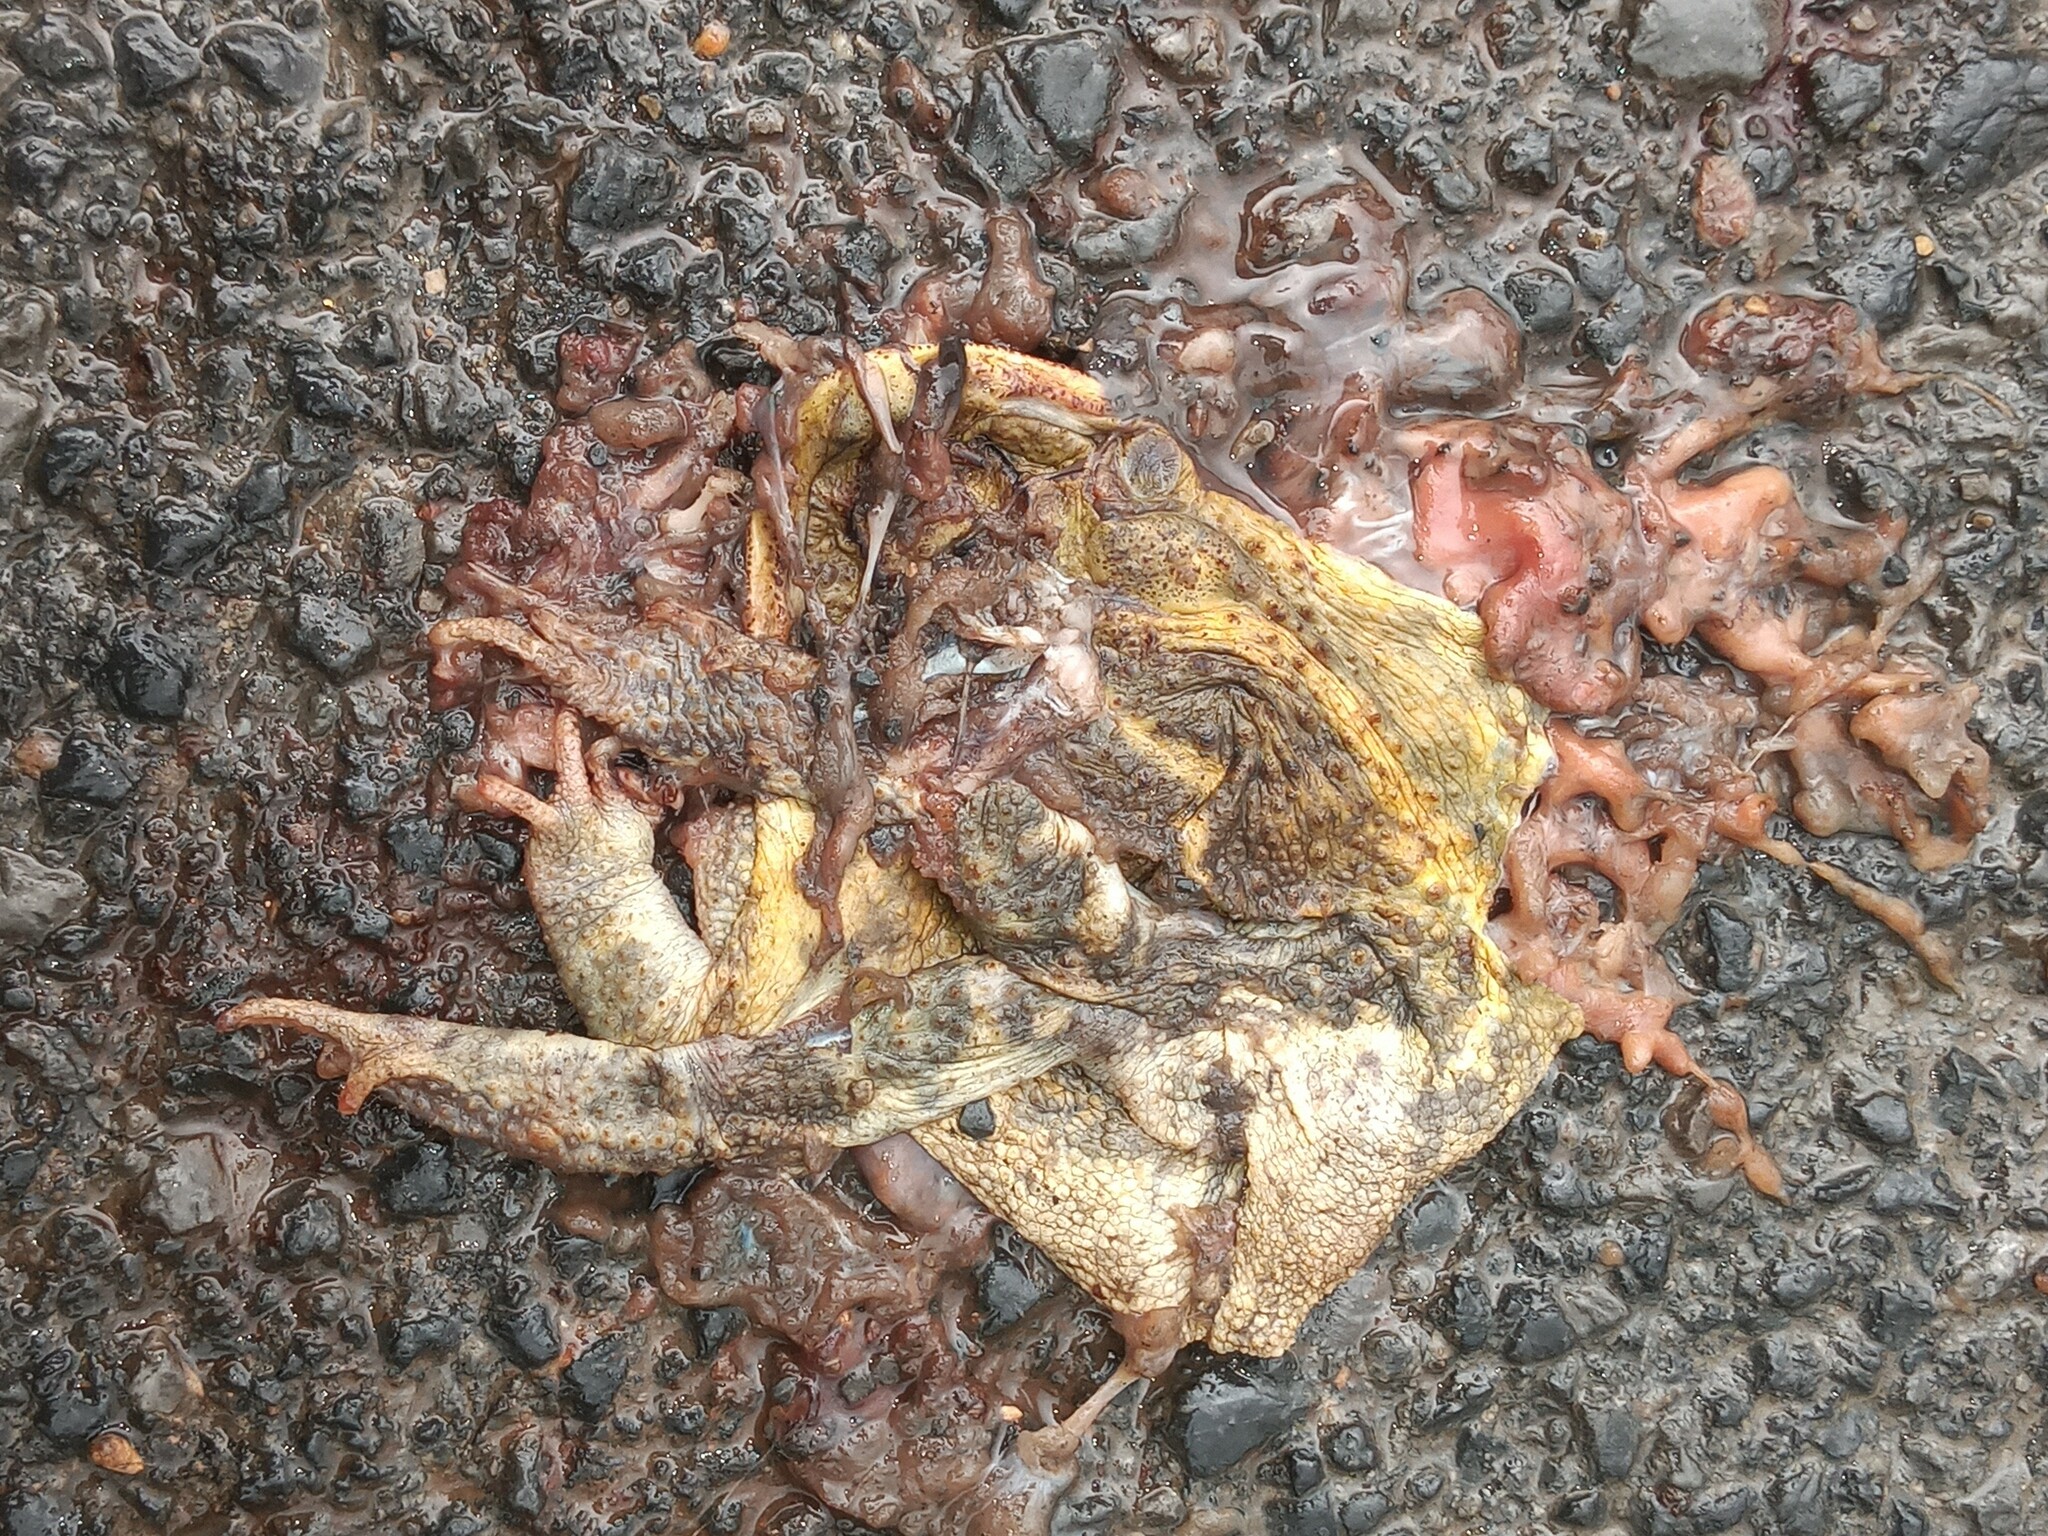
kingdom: Animalia
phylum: Chordata
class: Amphibia
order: Anura
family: Bufonidae
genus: Incilius
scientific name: Incilius nebulifer
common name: Gulf coast toad
